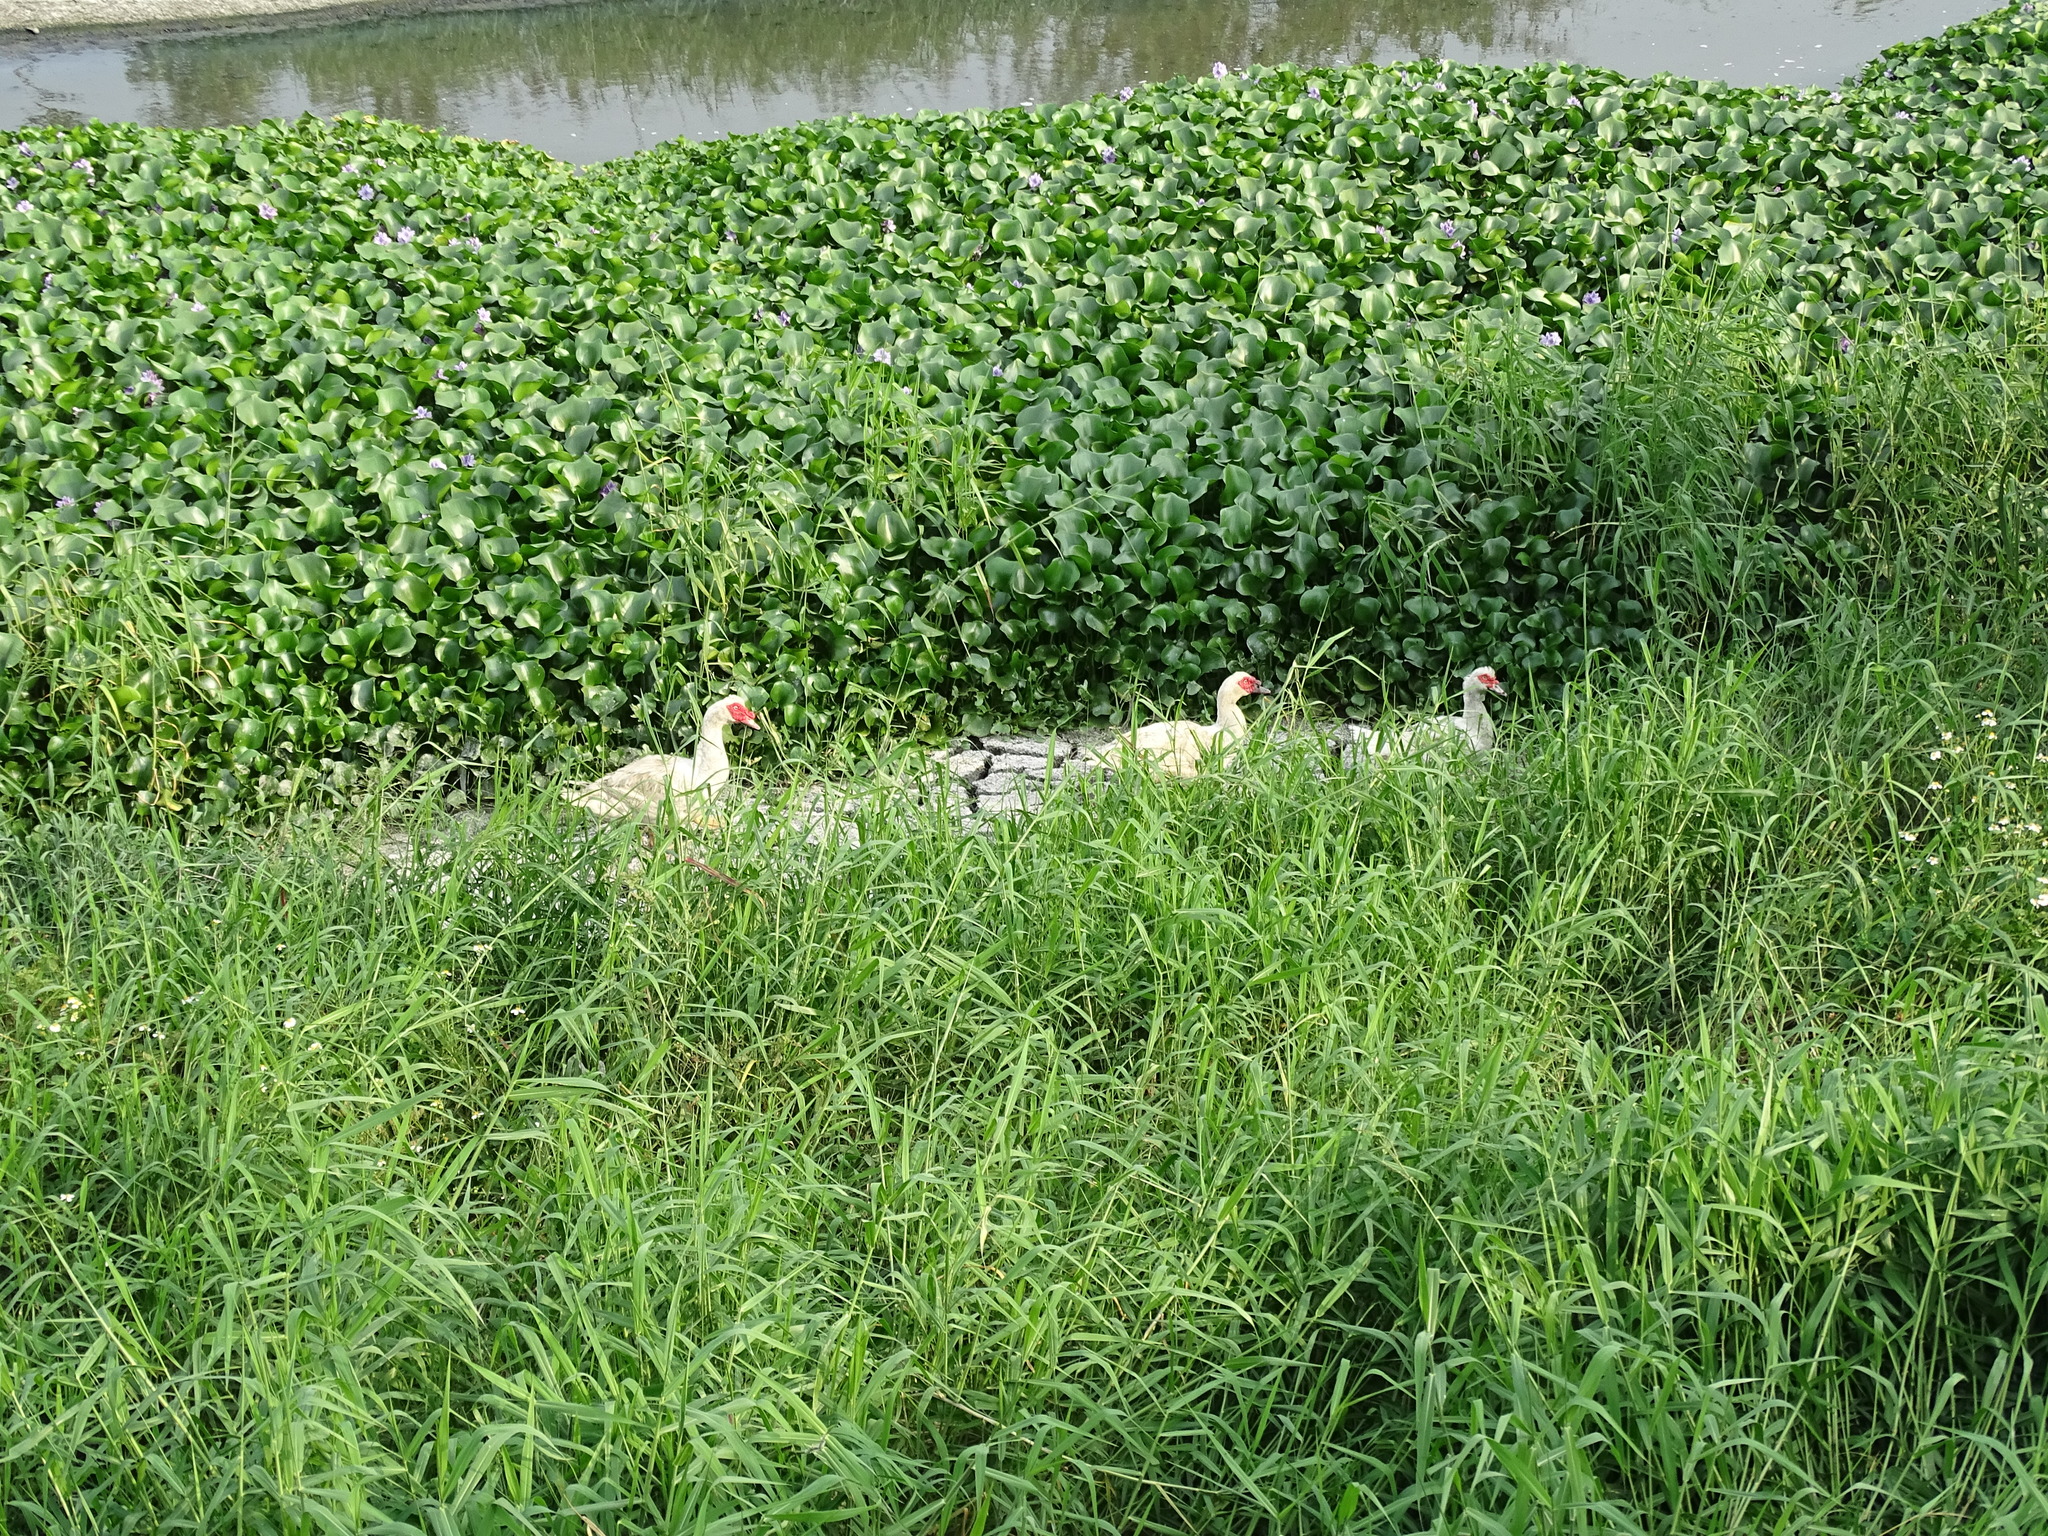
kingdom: Animalia
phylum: Chordata
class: Aves
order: Anseriformes
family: Anatidae
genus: Cairina
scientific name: Cairina moschata
